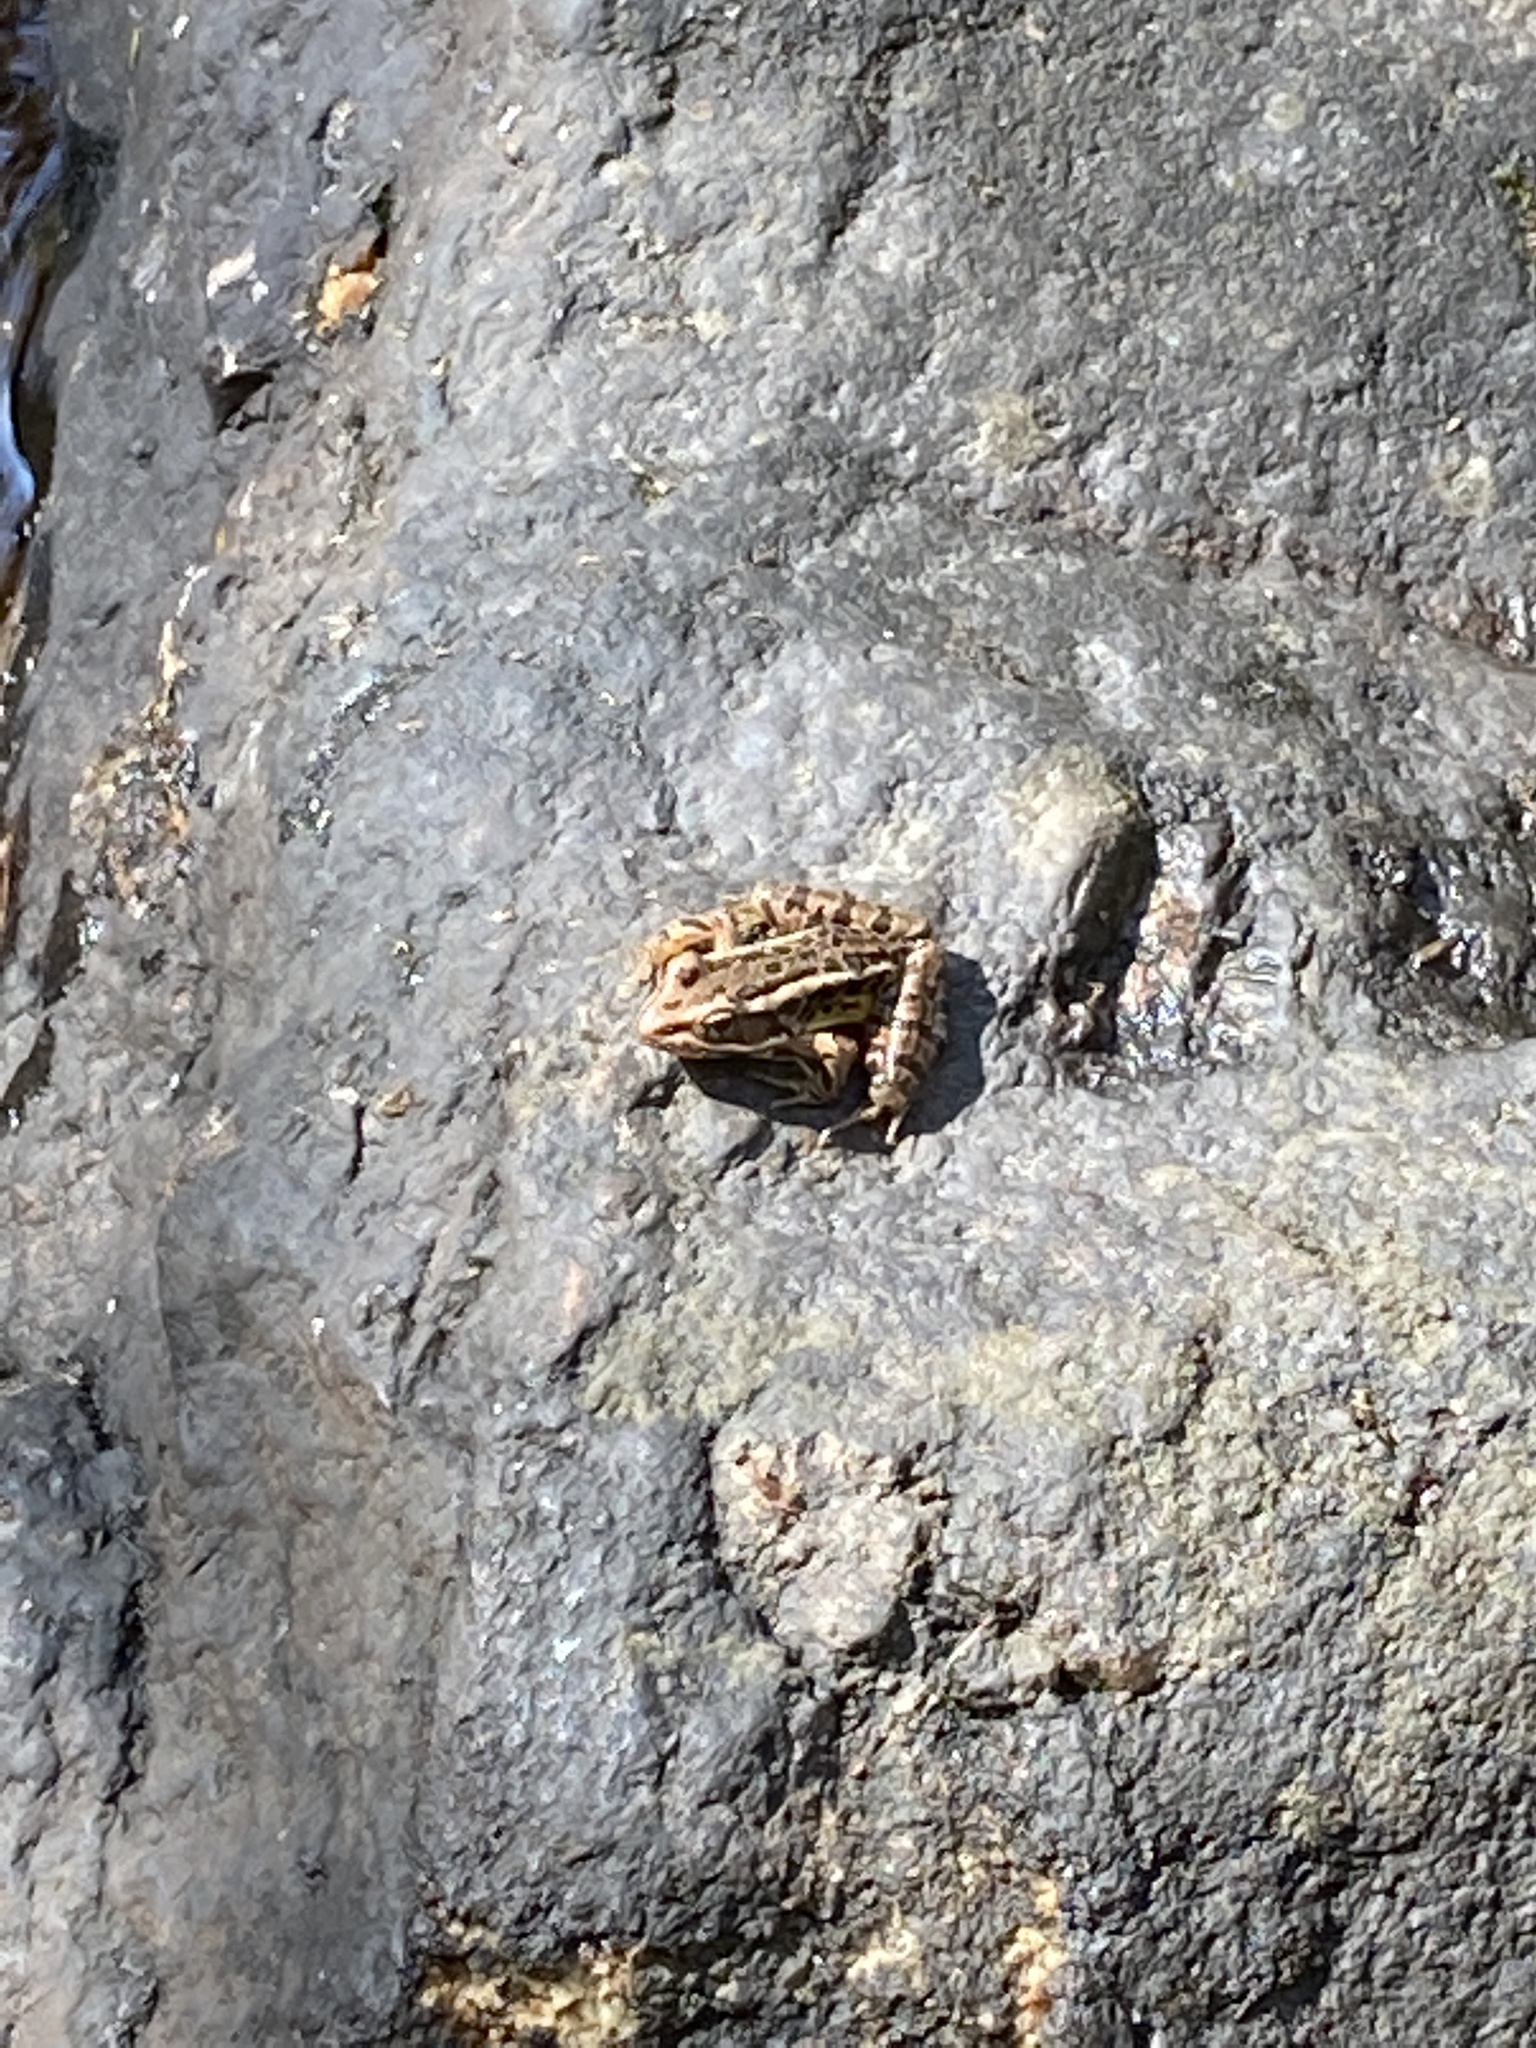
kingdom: Animalia
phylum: Chordata
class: Amphibia
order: Anura
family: Ranidae
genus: Lithobates
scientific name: Lithobates palustris
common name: Pickerel frog
